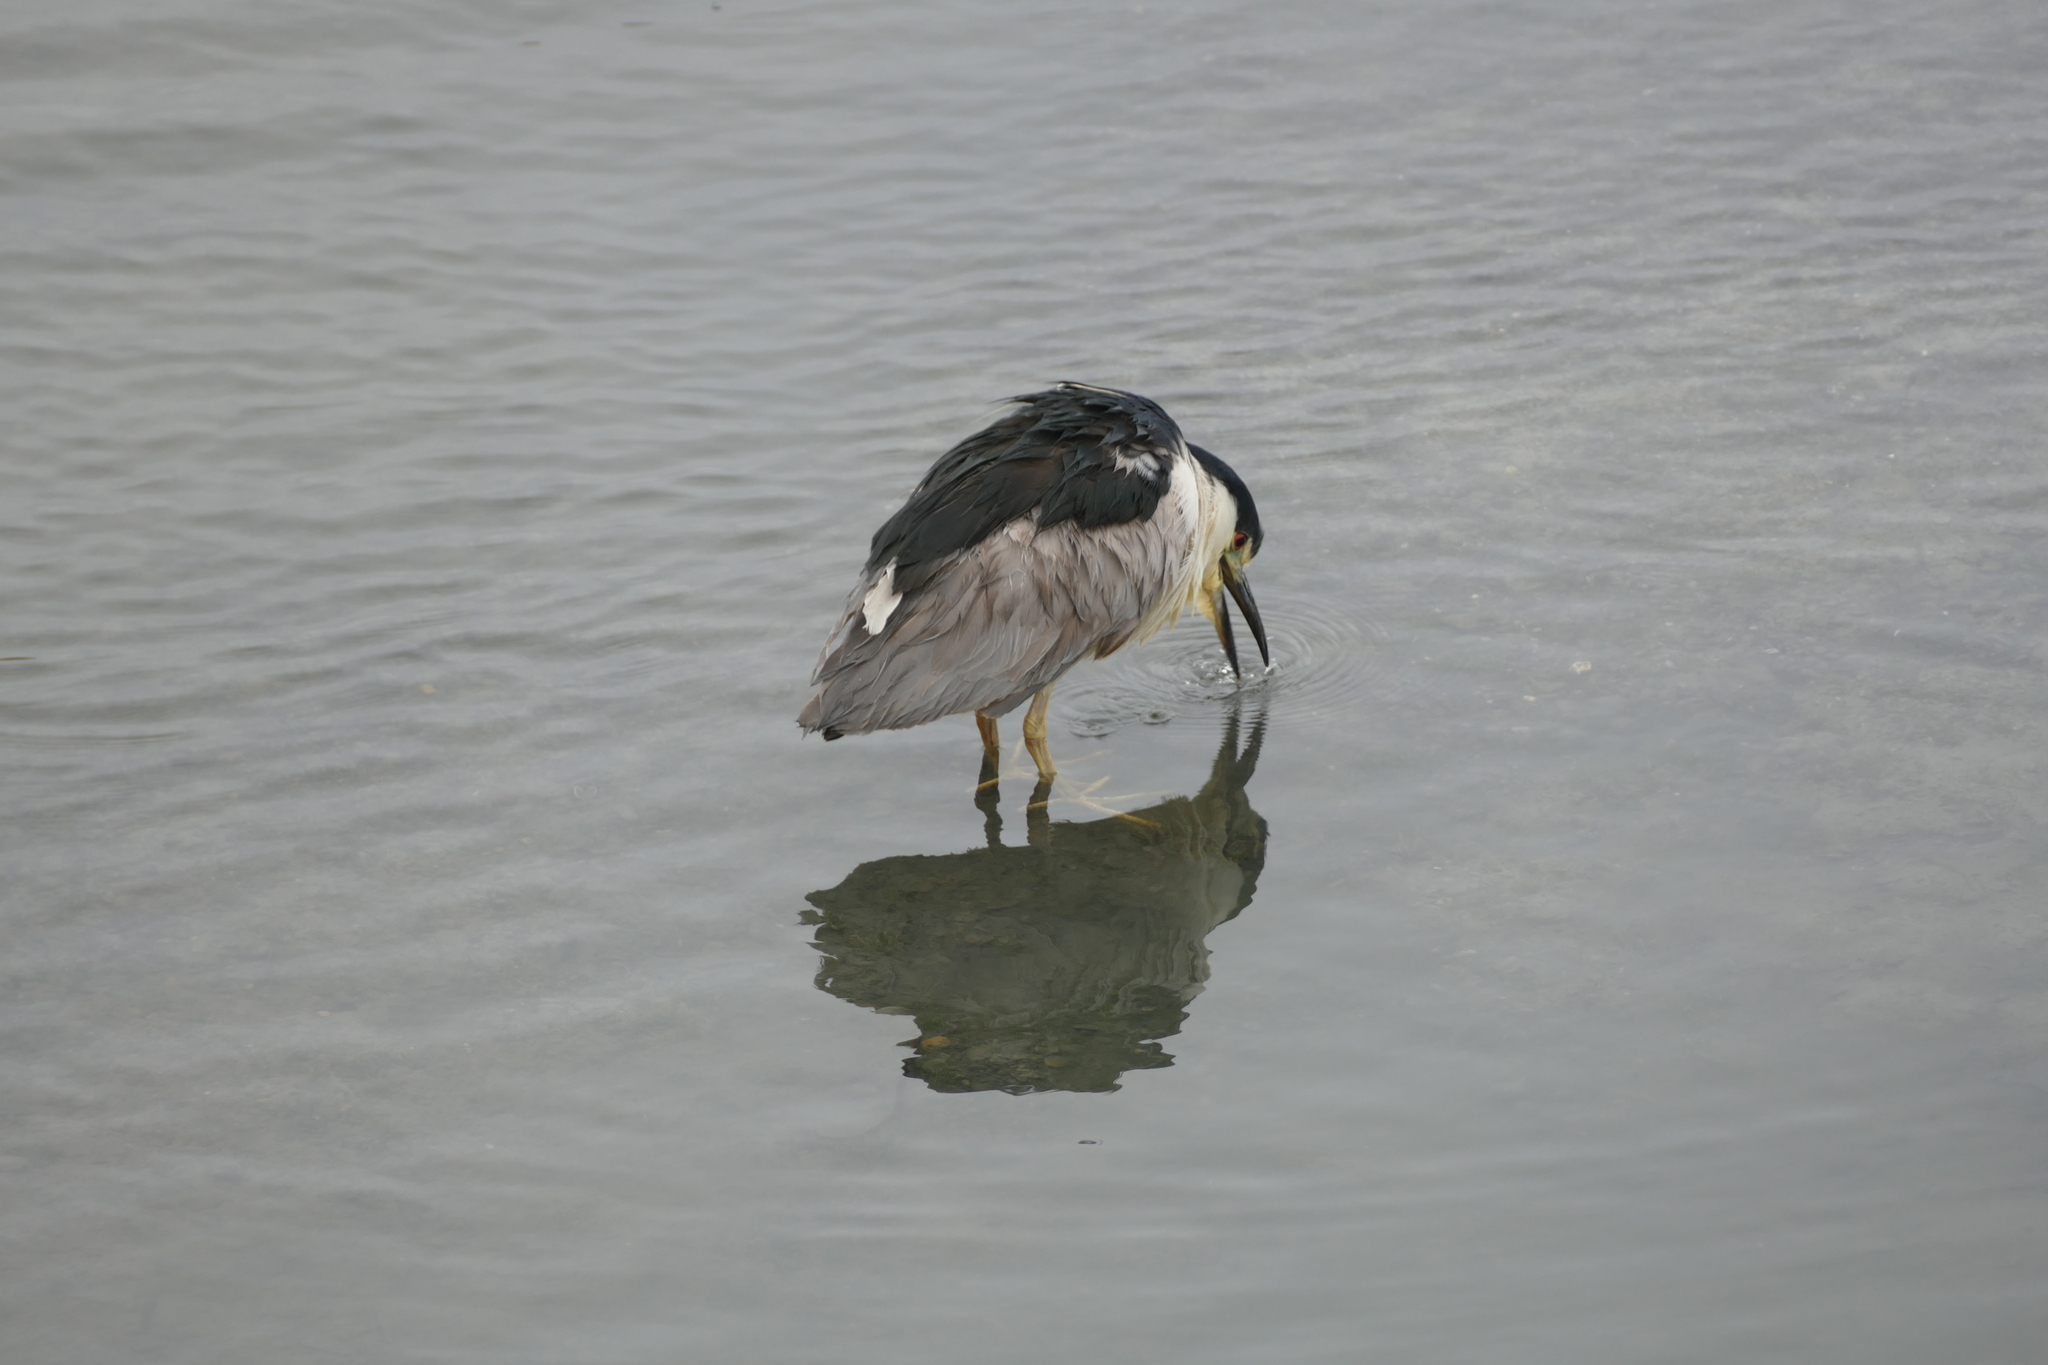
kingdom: Animalia
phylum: Chordata
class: Aves
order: Pelecaniformes
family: Ardeidae
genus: Nycticorax
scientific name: Nycticorax nycticorax
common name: Black-crowned night heron
